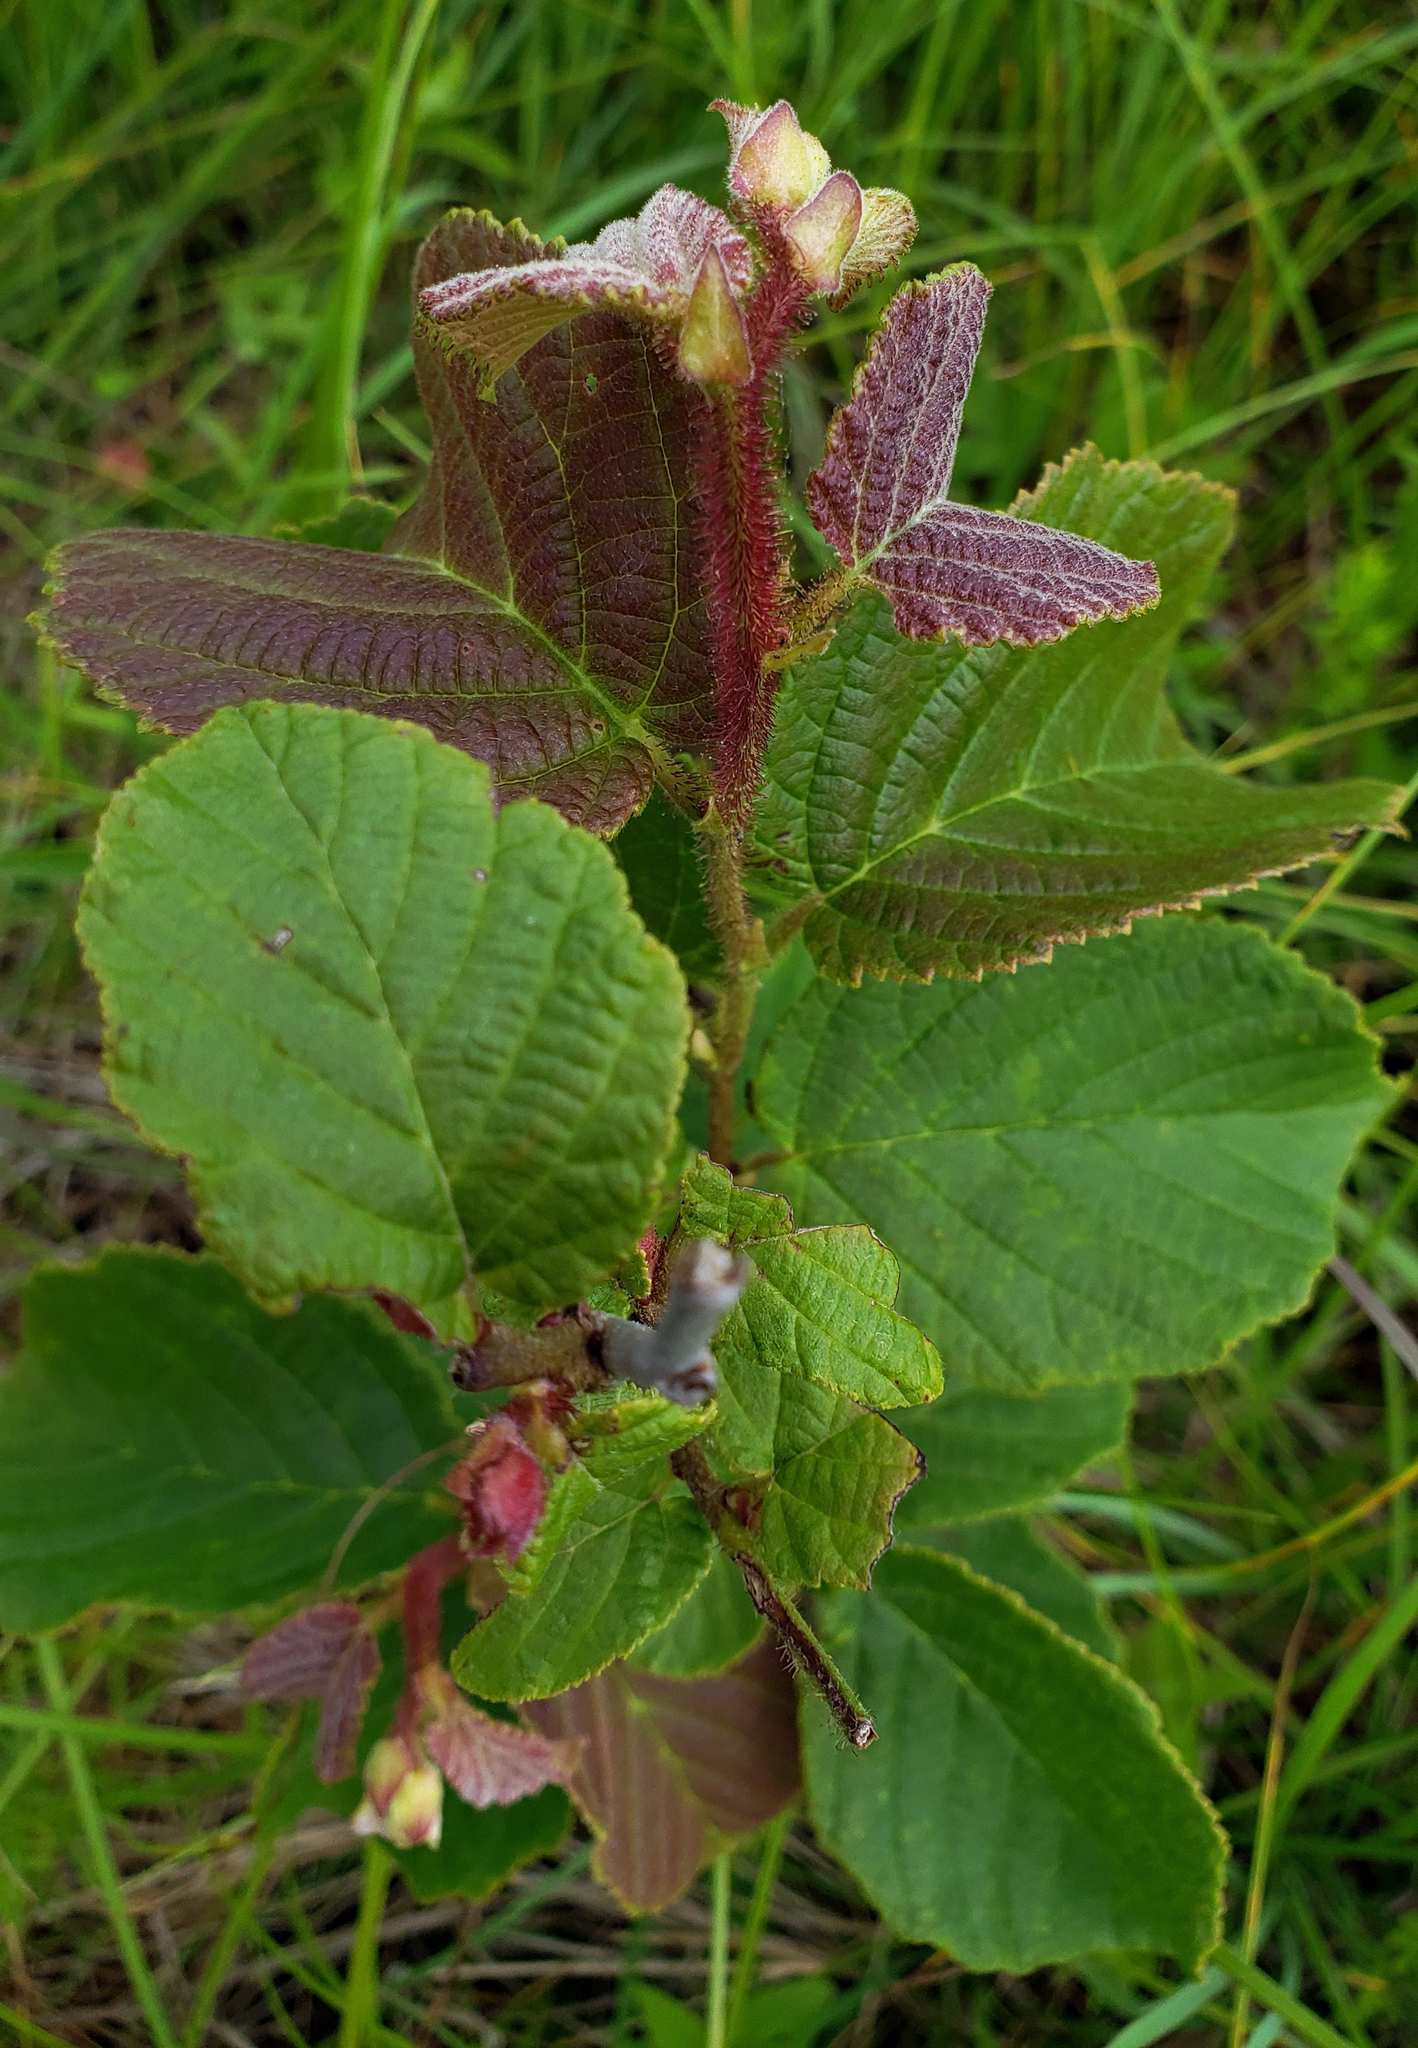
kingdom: Plantae
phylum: Tracheophyta
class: Magnoliopsida
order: Fagales
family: Betulaceae
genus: Corylus
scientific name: Corylus americana
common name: American hazel
